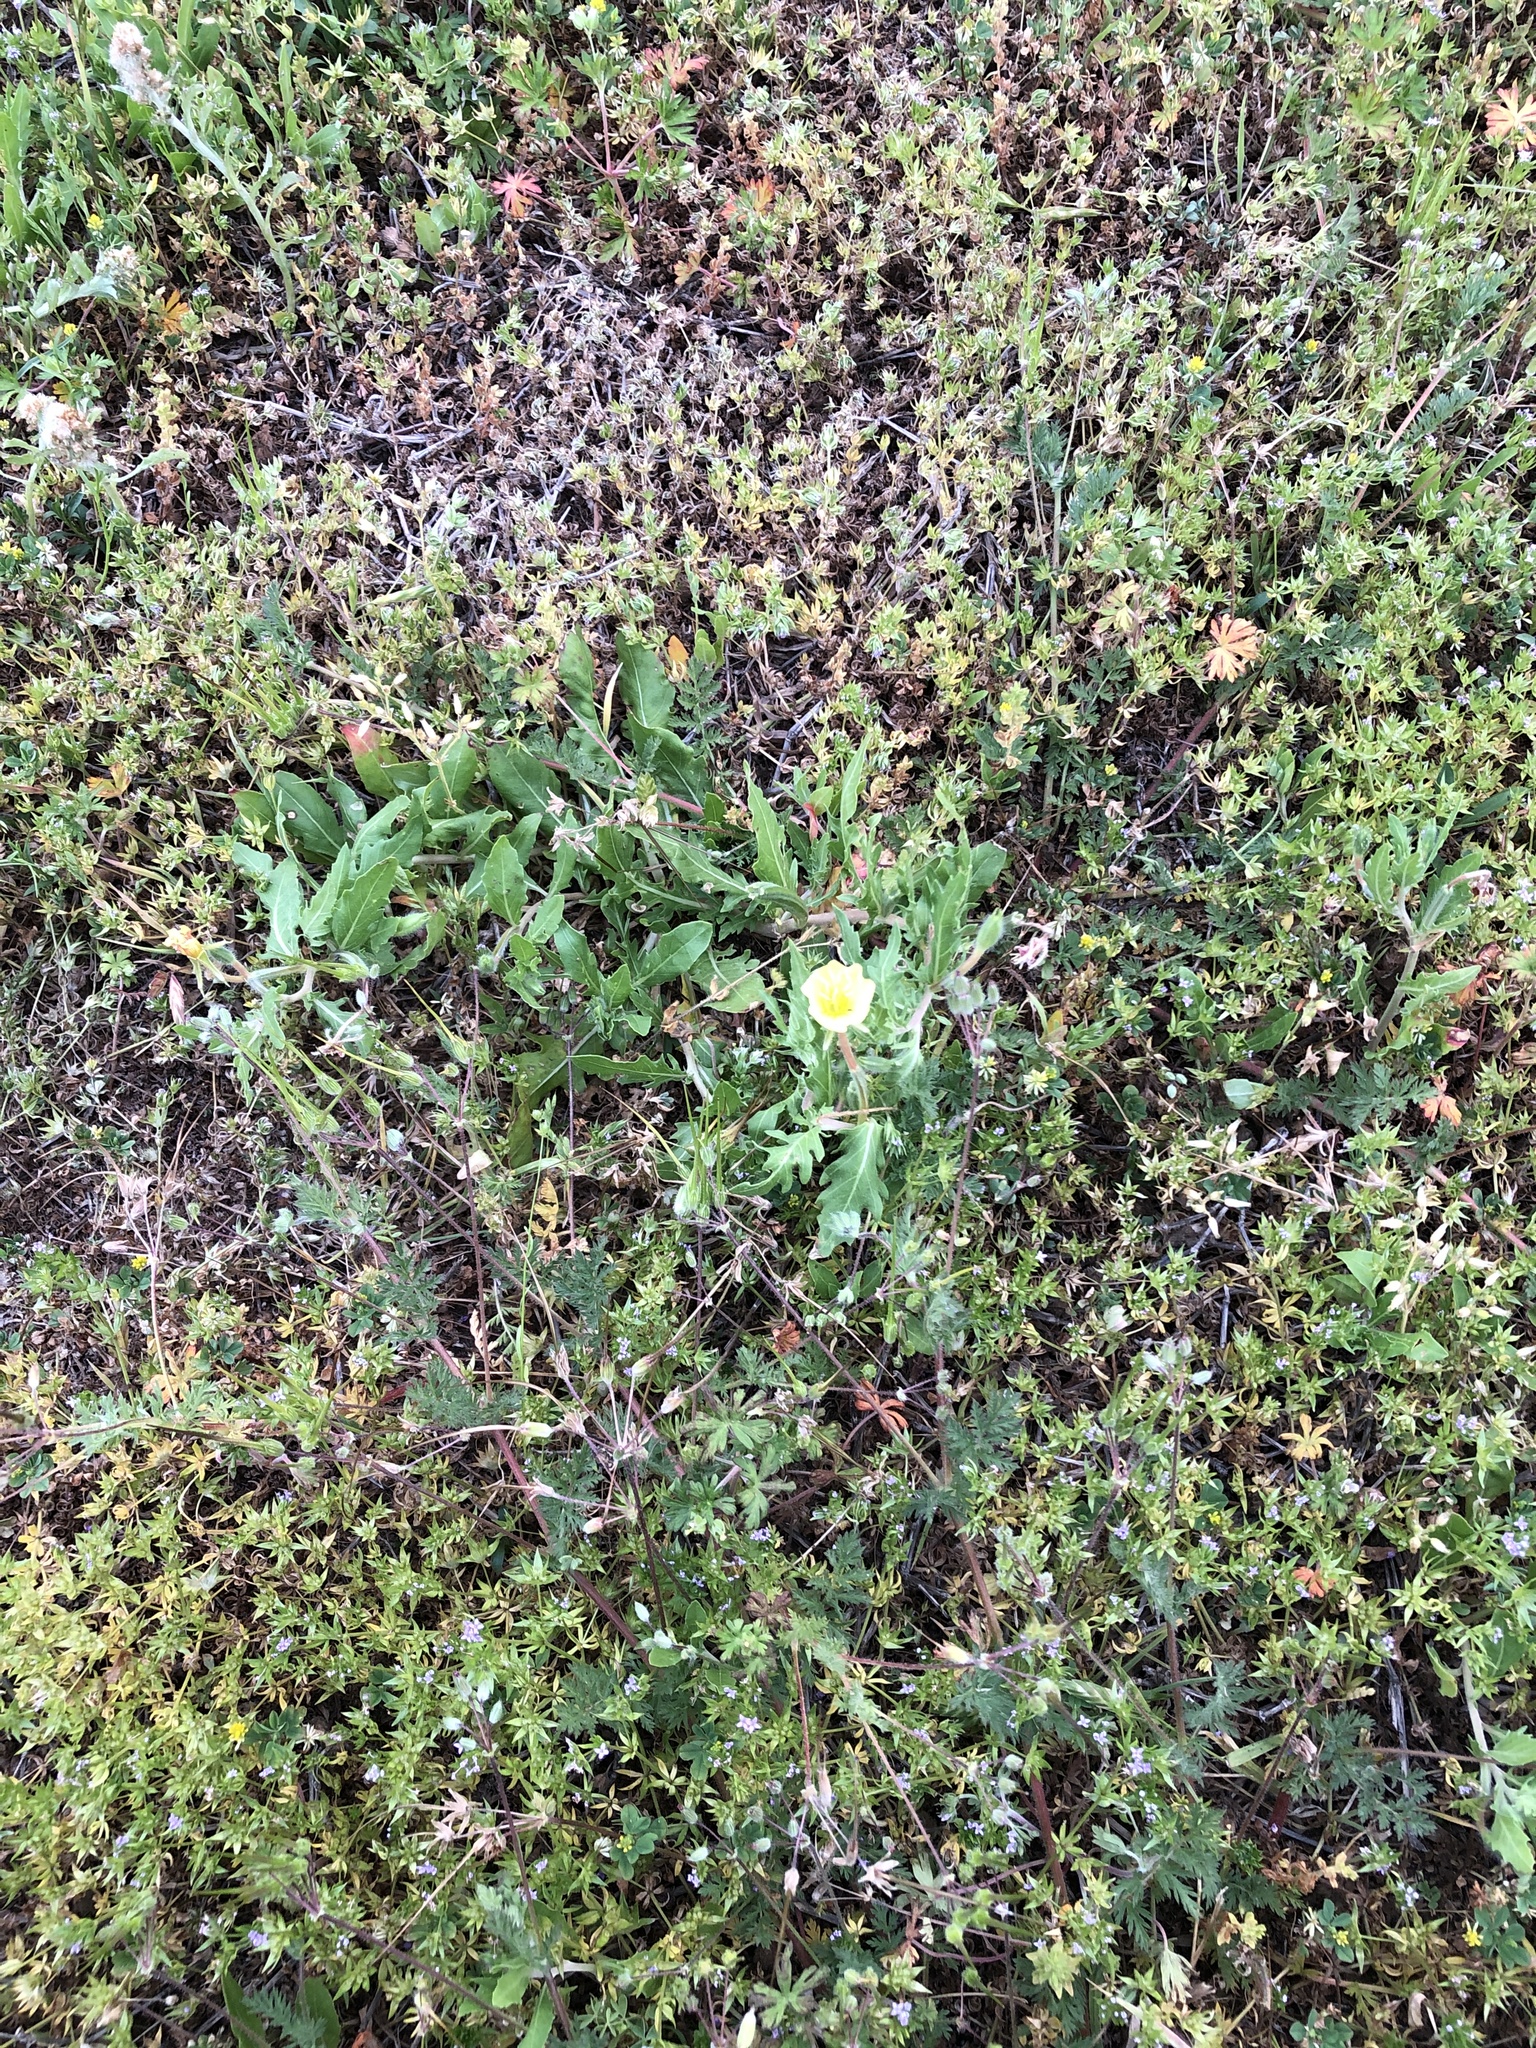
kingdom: Plantae
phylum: Tracheophyta
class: Magnoliopsida
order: Myrtales
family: Onagraceae
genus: Oenothera
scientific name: Oenothera laciniata
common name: Cut-leaved evening-primrose
